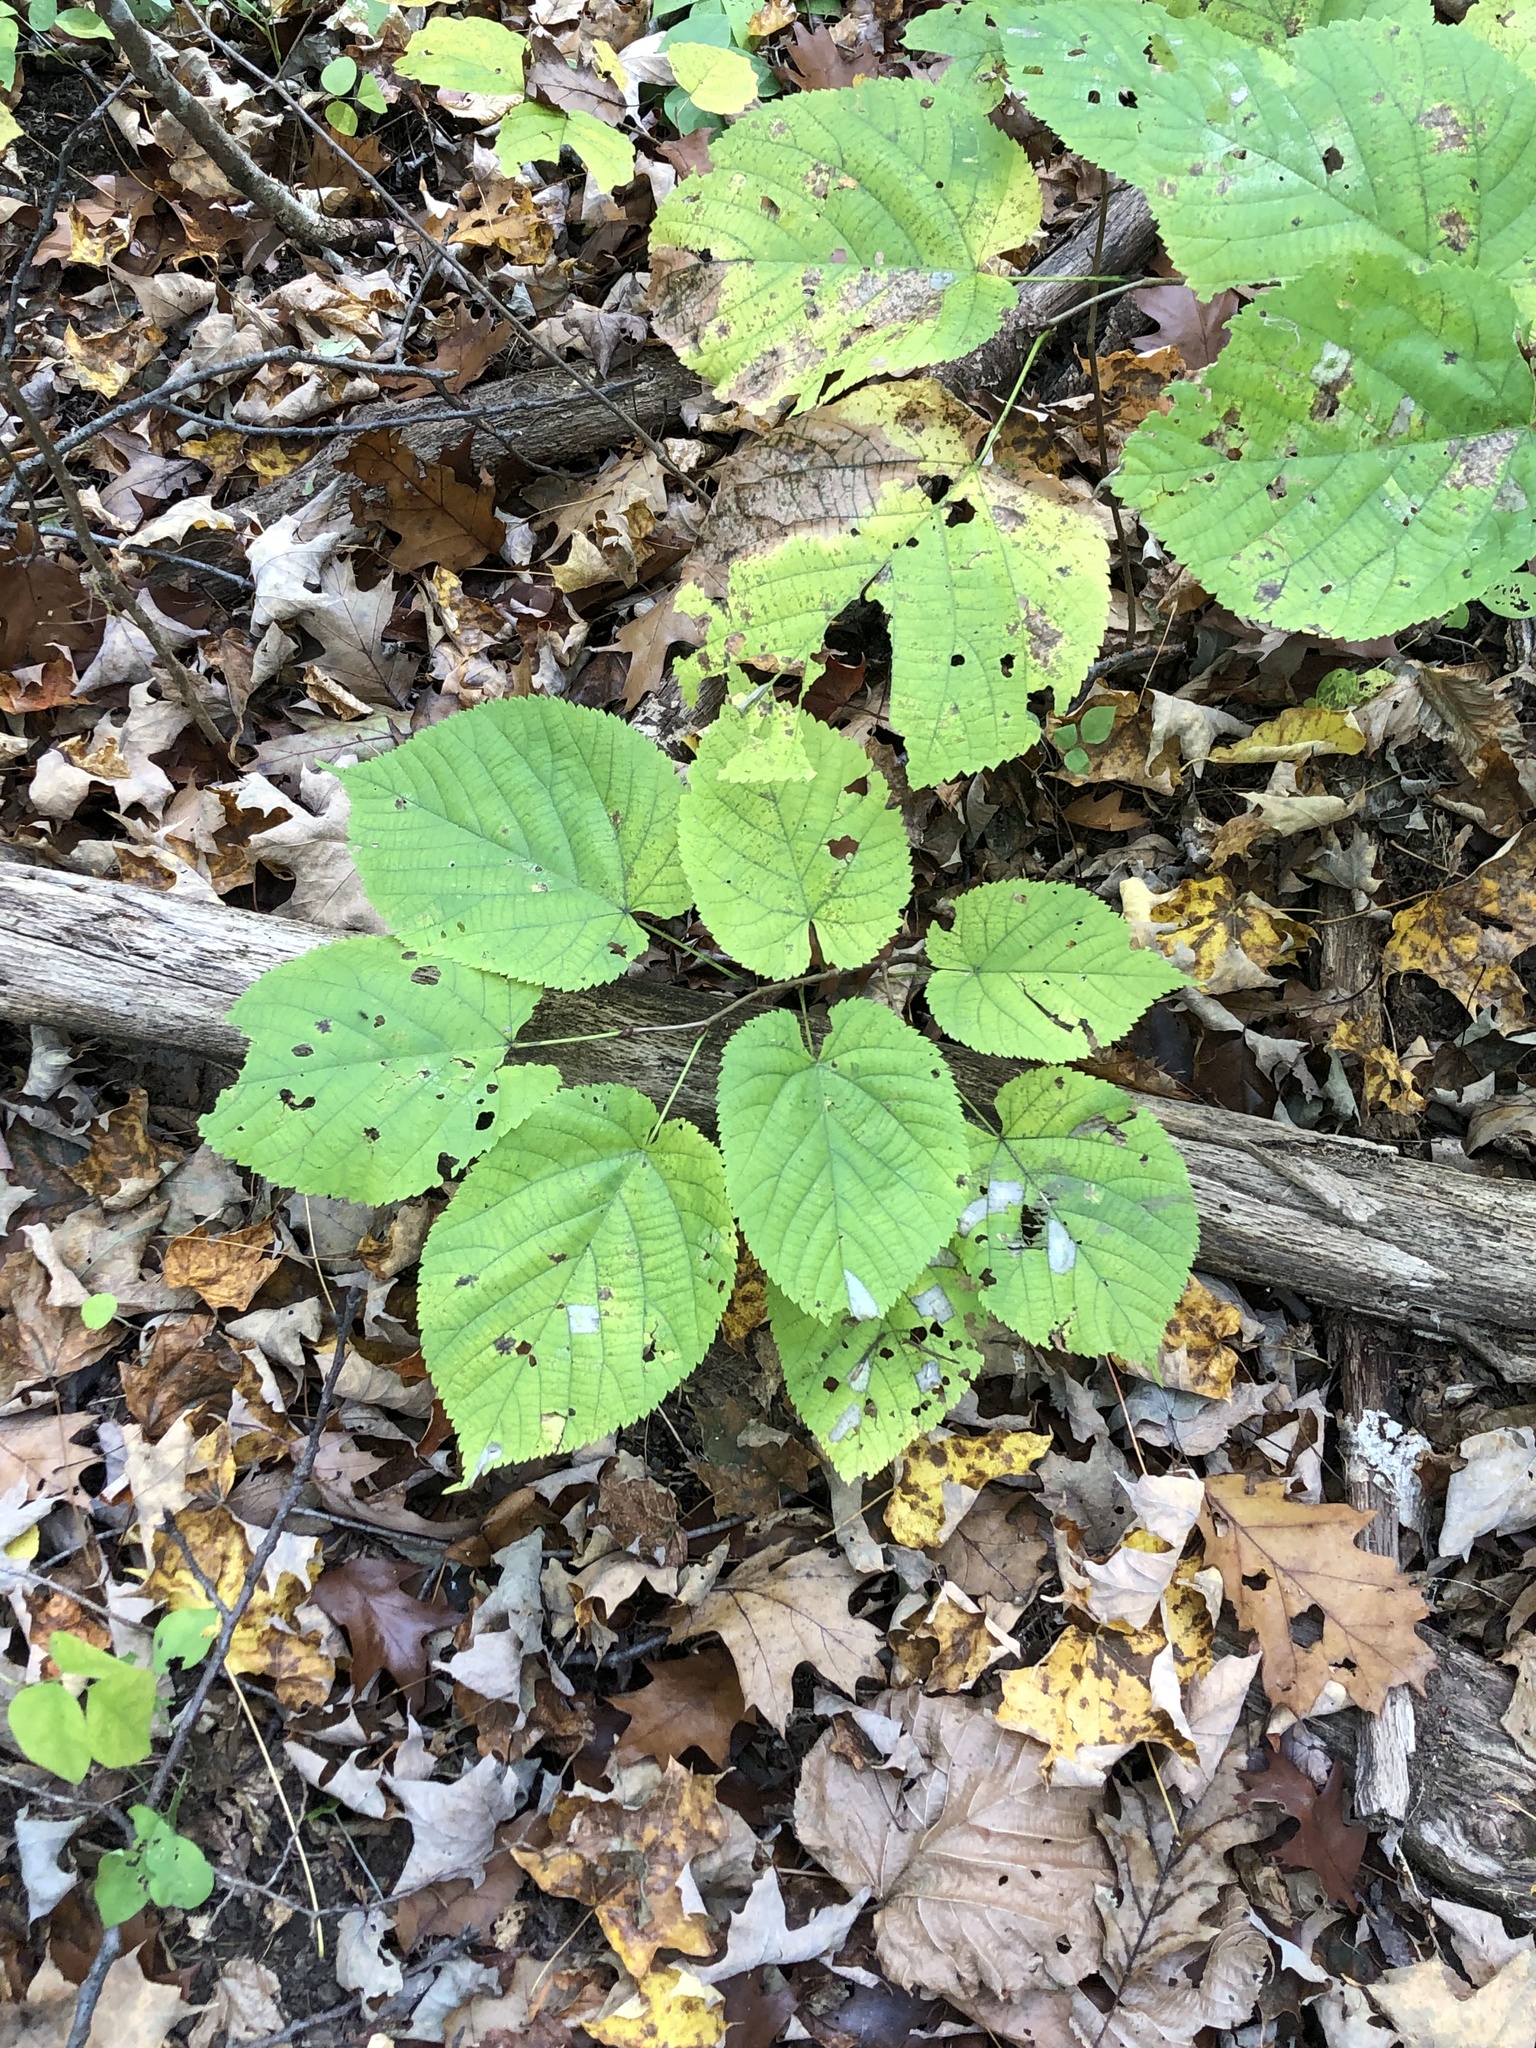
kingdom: Plantae
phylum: Tracheophyta
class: Magnoliopsida
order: Malvales
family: Malvaceae
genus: Tilia
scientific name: Tilia americana
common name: Basswood
